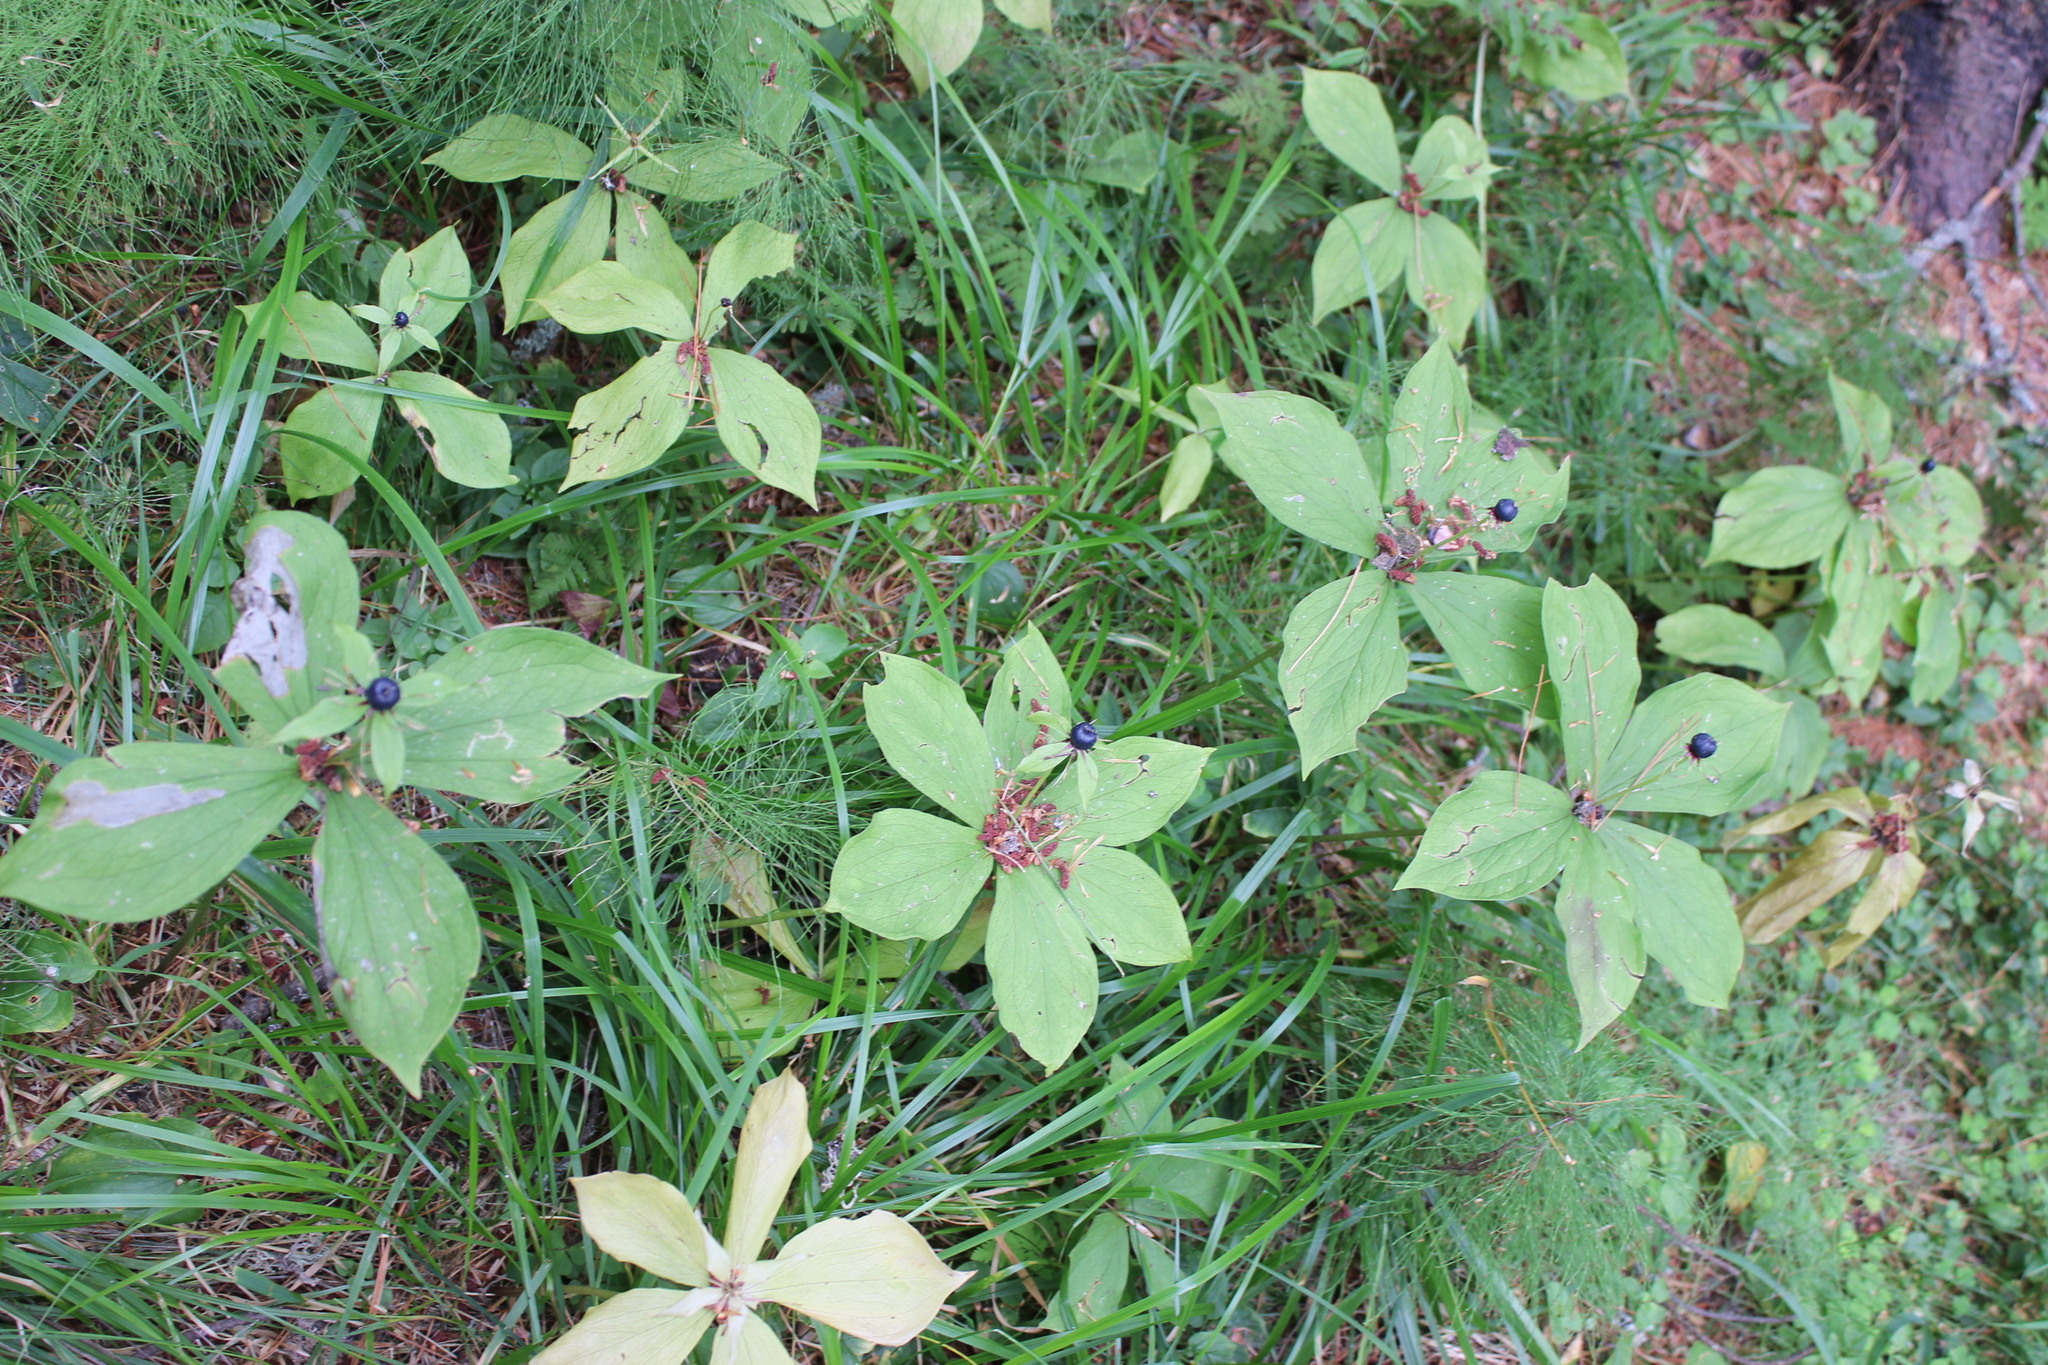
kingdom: Plantae
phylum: Tracheophyta
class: Liliopsida
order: Liliales
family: Melanthiaceae
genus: Paris
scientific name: Paris quadrifolia
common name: Herb-paris
